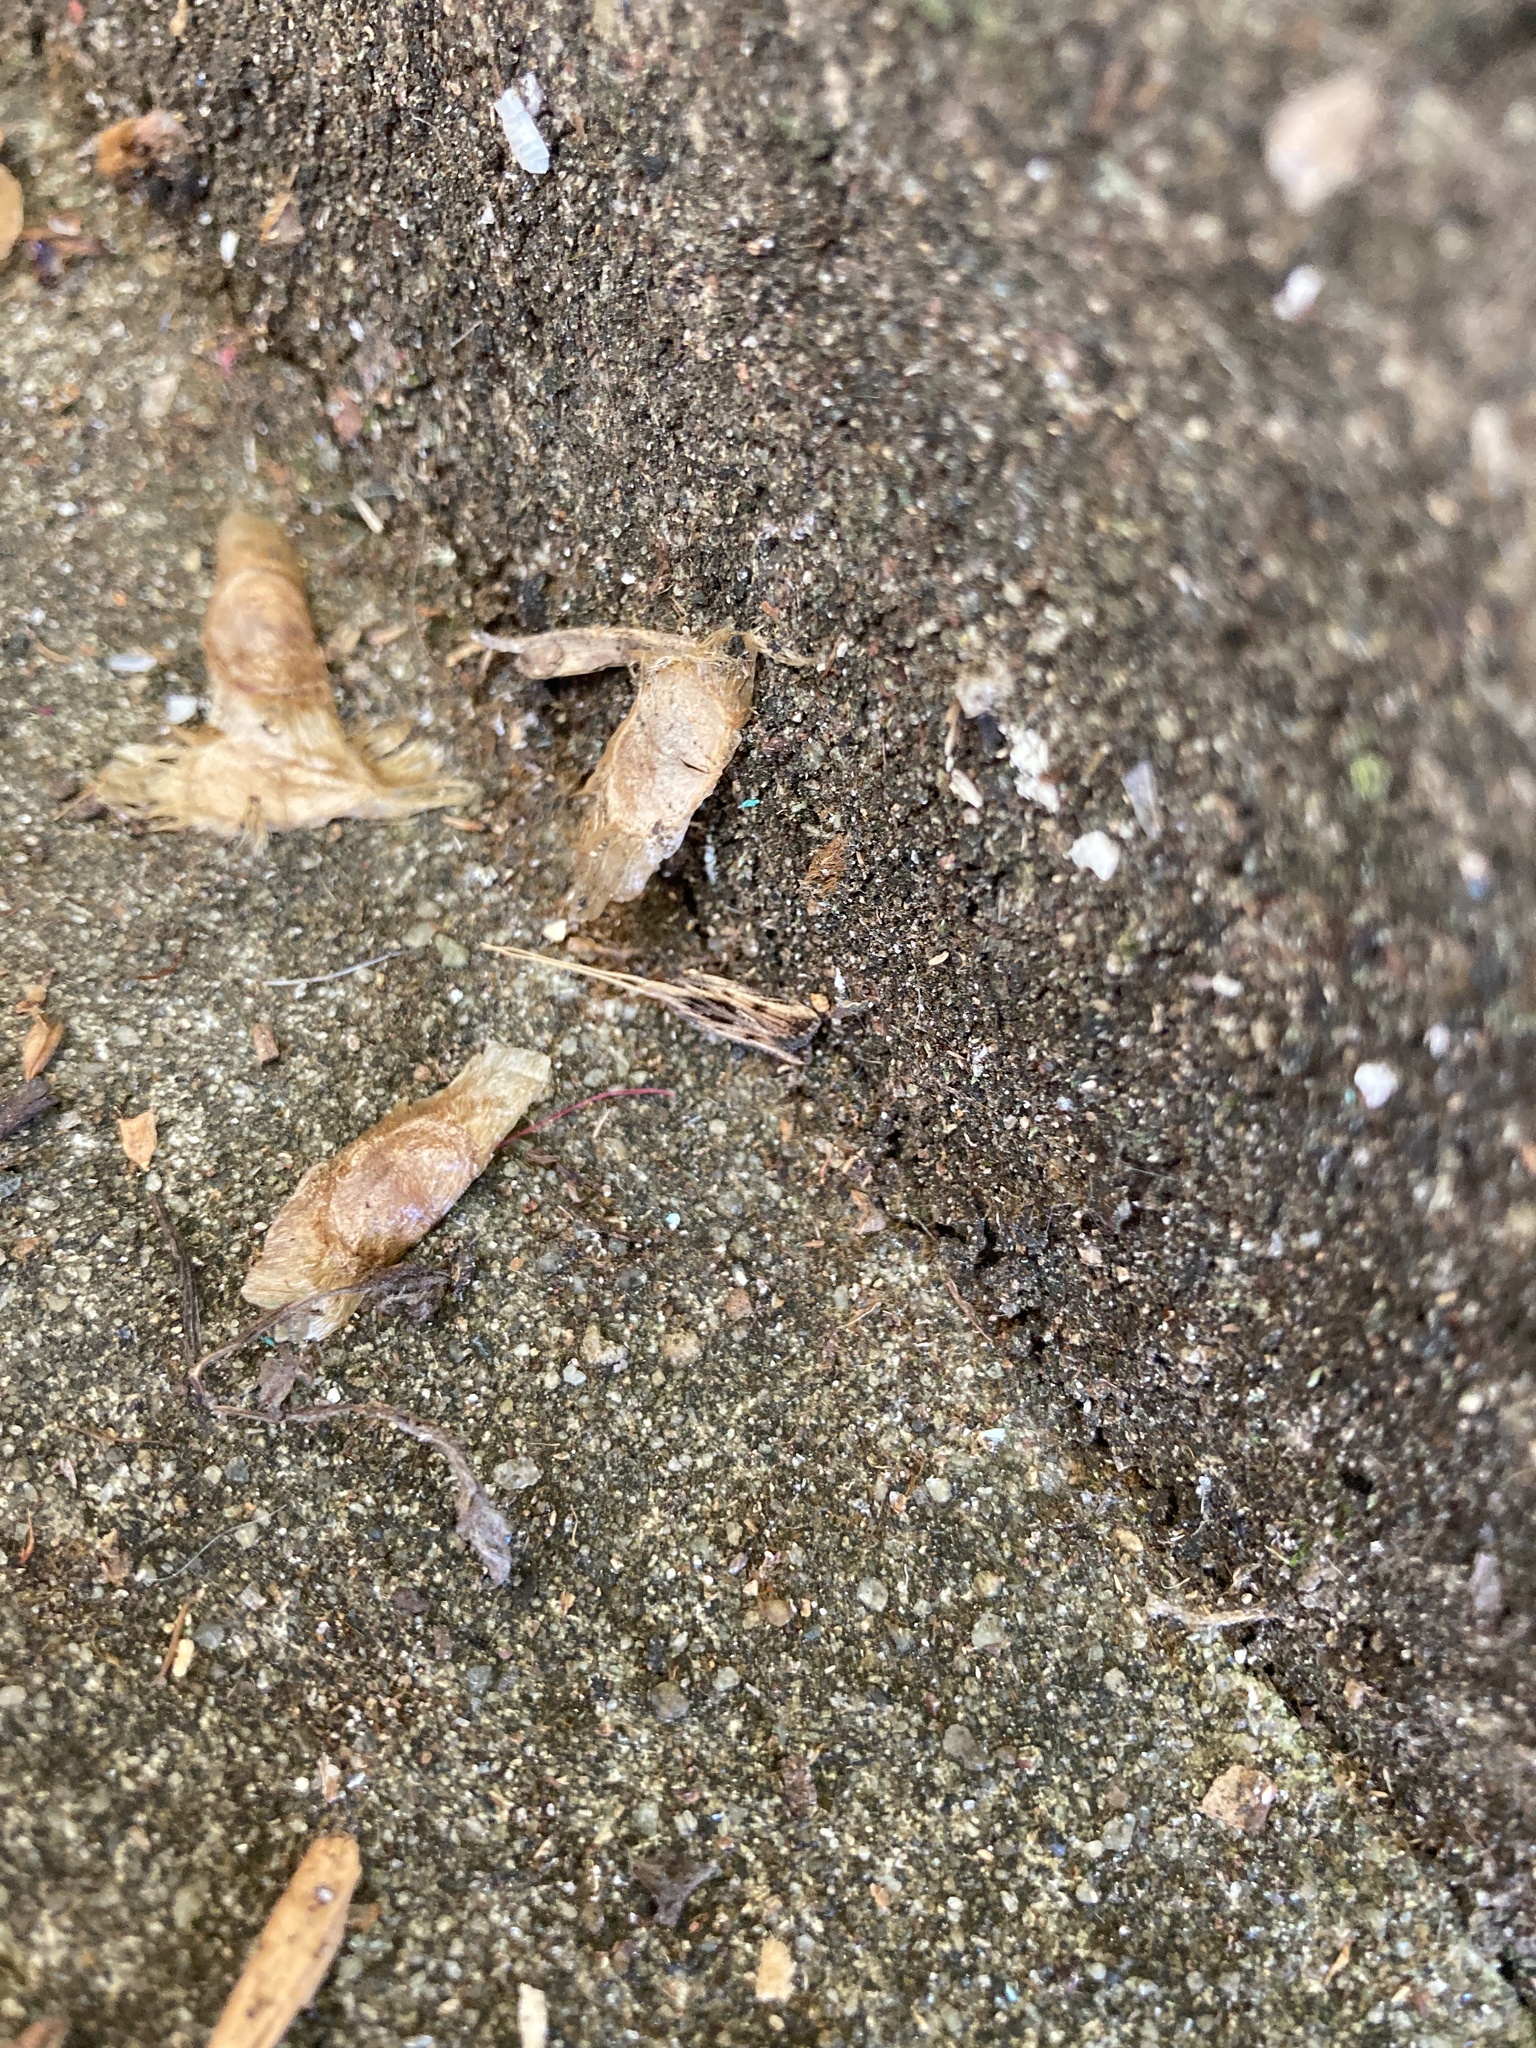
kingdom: Animalia
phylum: Arthropoda
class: Insecta
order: Lepidoptera
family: Lecithoceridae
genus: Sarisophora
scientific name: Sarisophora leucoscia
